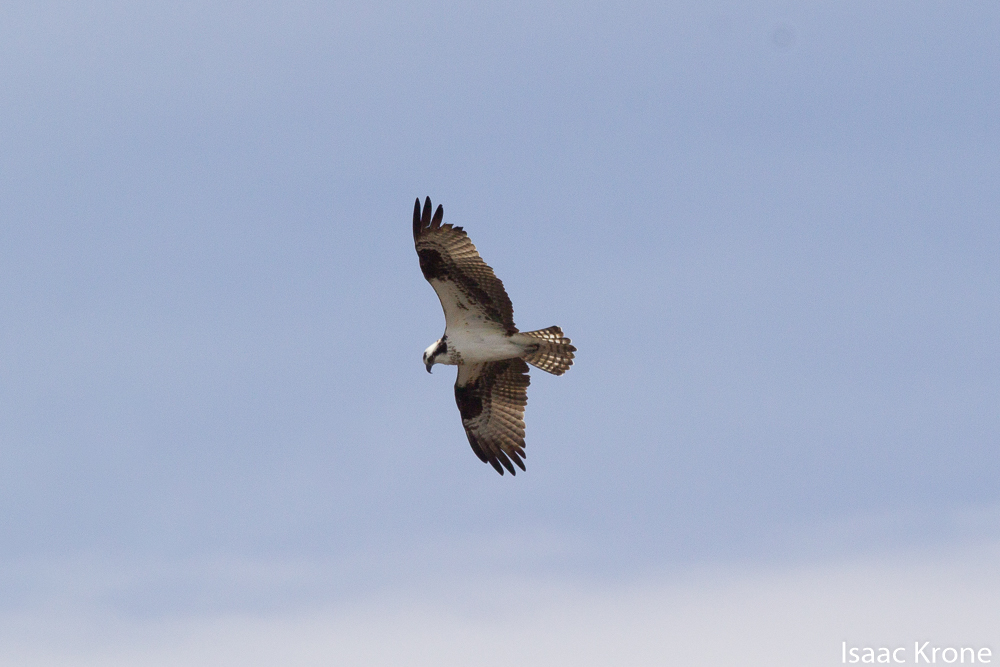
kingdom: Animalia
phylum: Chordata
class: Aves
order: Accipitriformes
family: Pandionidae
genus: Pandion
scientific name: Pandion haliaetus
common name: Osprey
